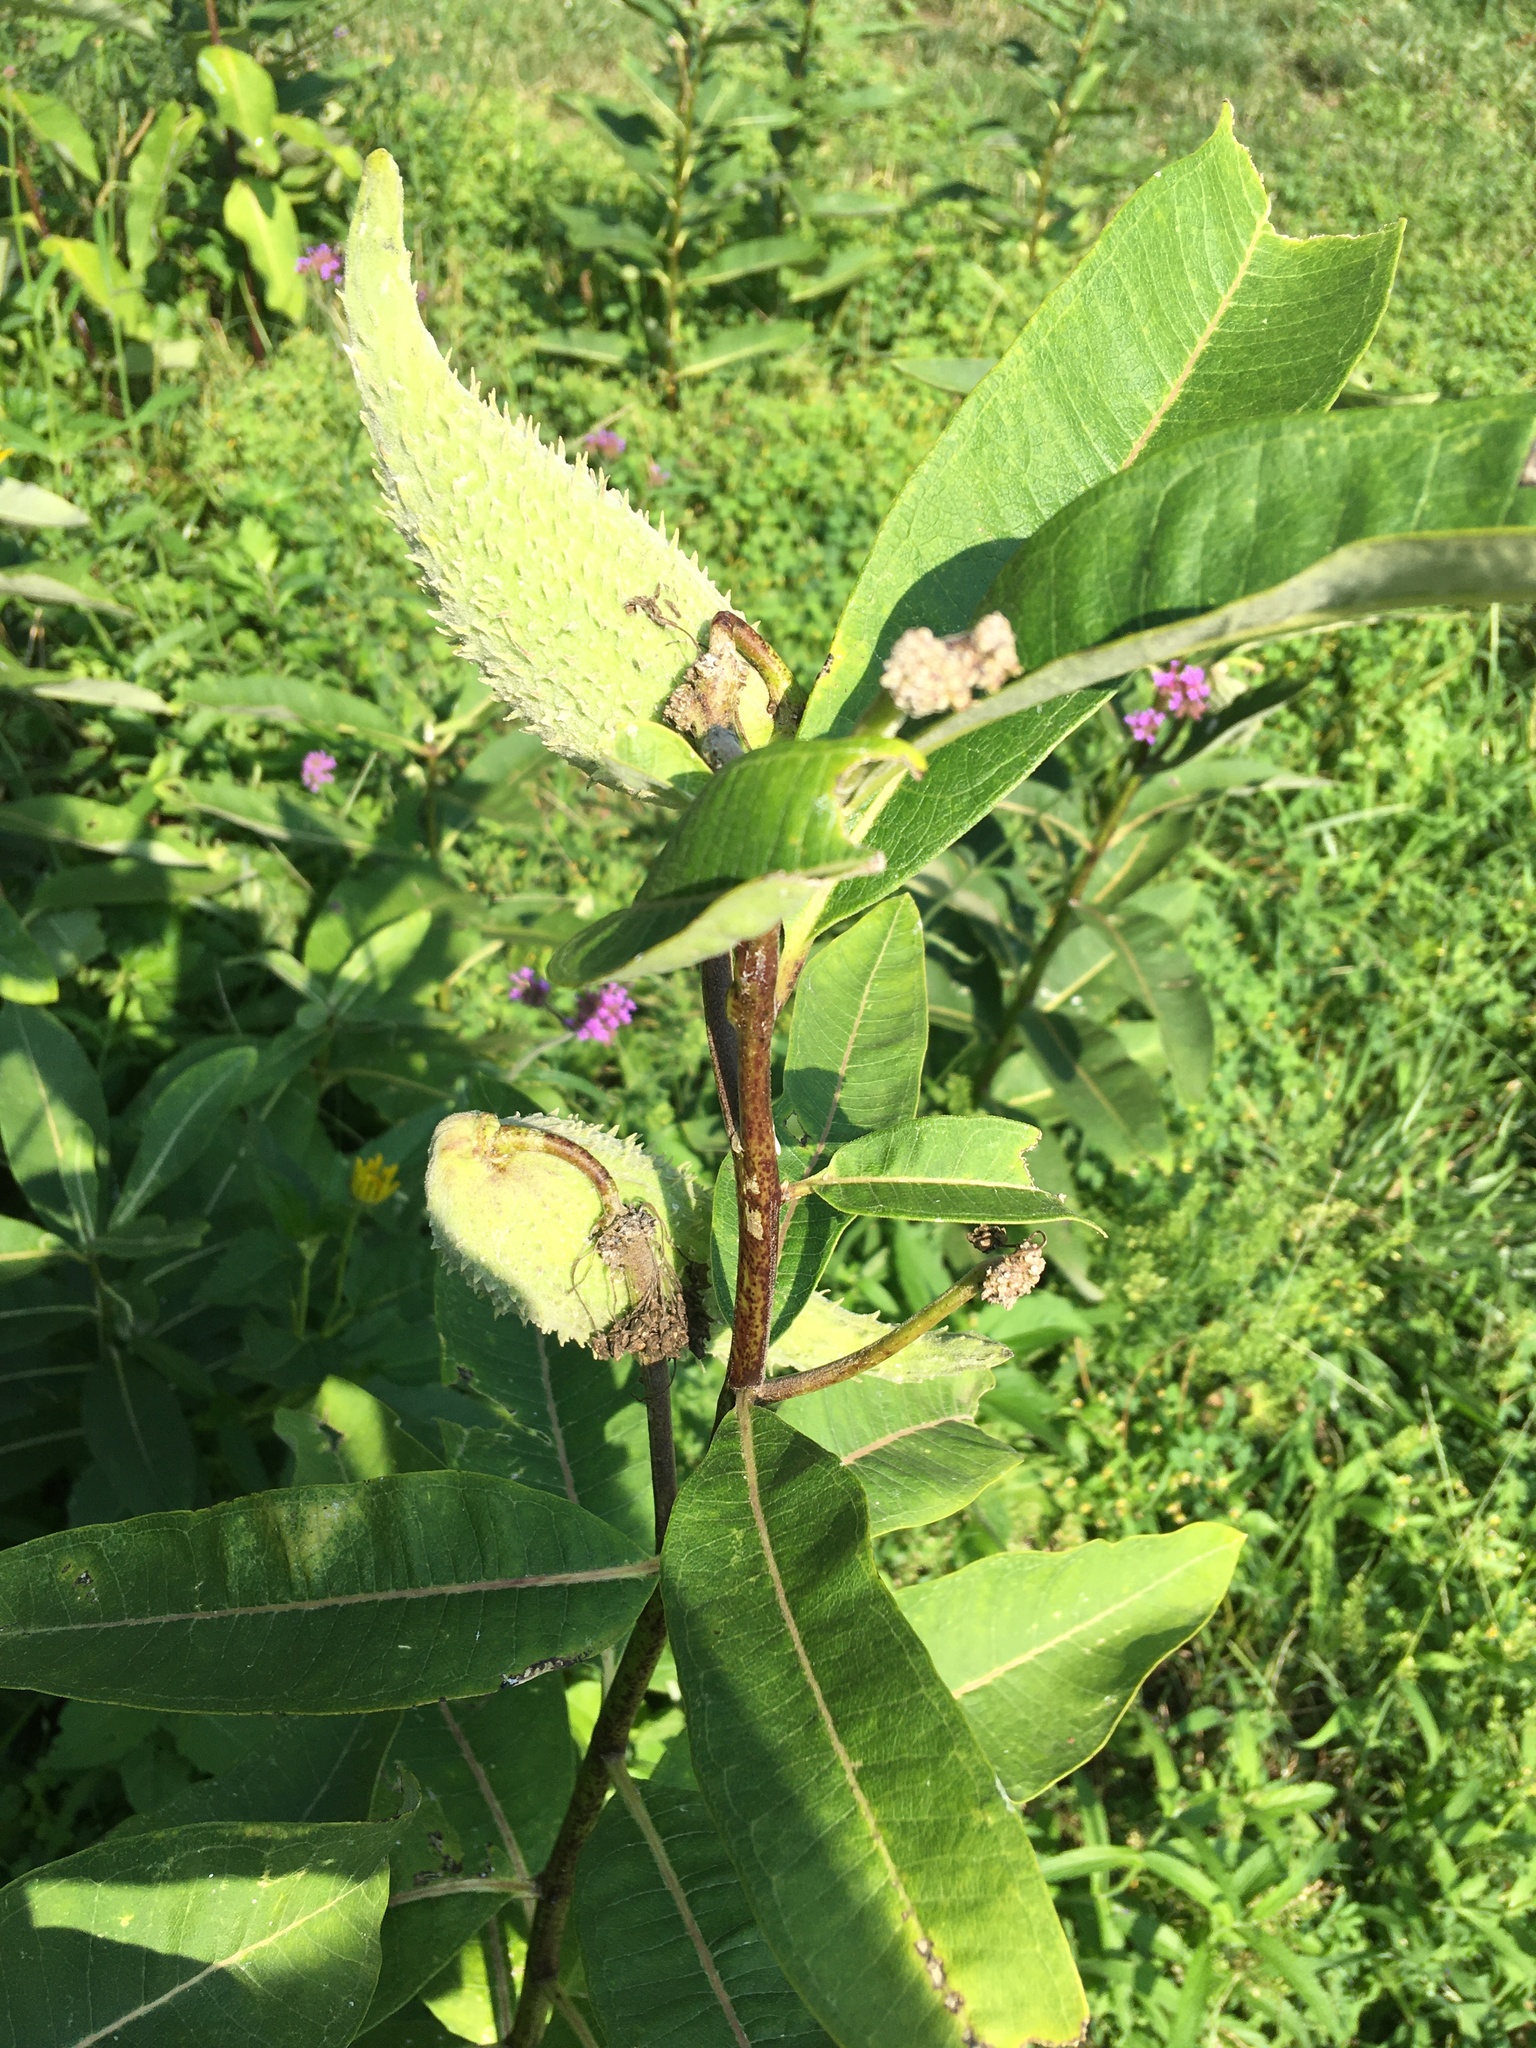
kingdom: Plantae
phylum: Tracheophyta
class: Magnoliopsida
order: Gentianales
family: Apocynaceae
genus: Asclepias
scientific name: Asclepias syriaca
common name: Common milkweed
